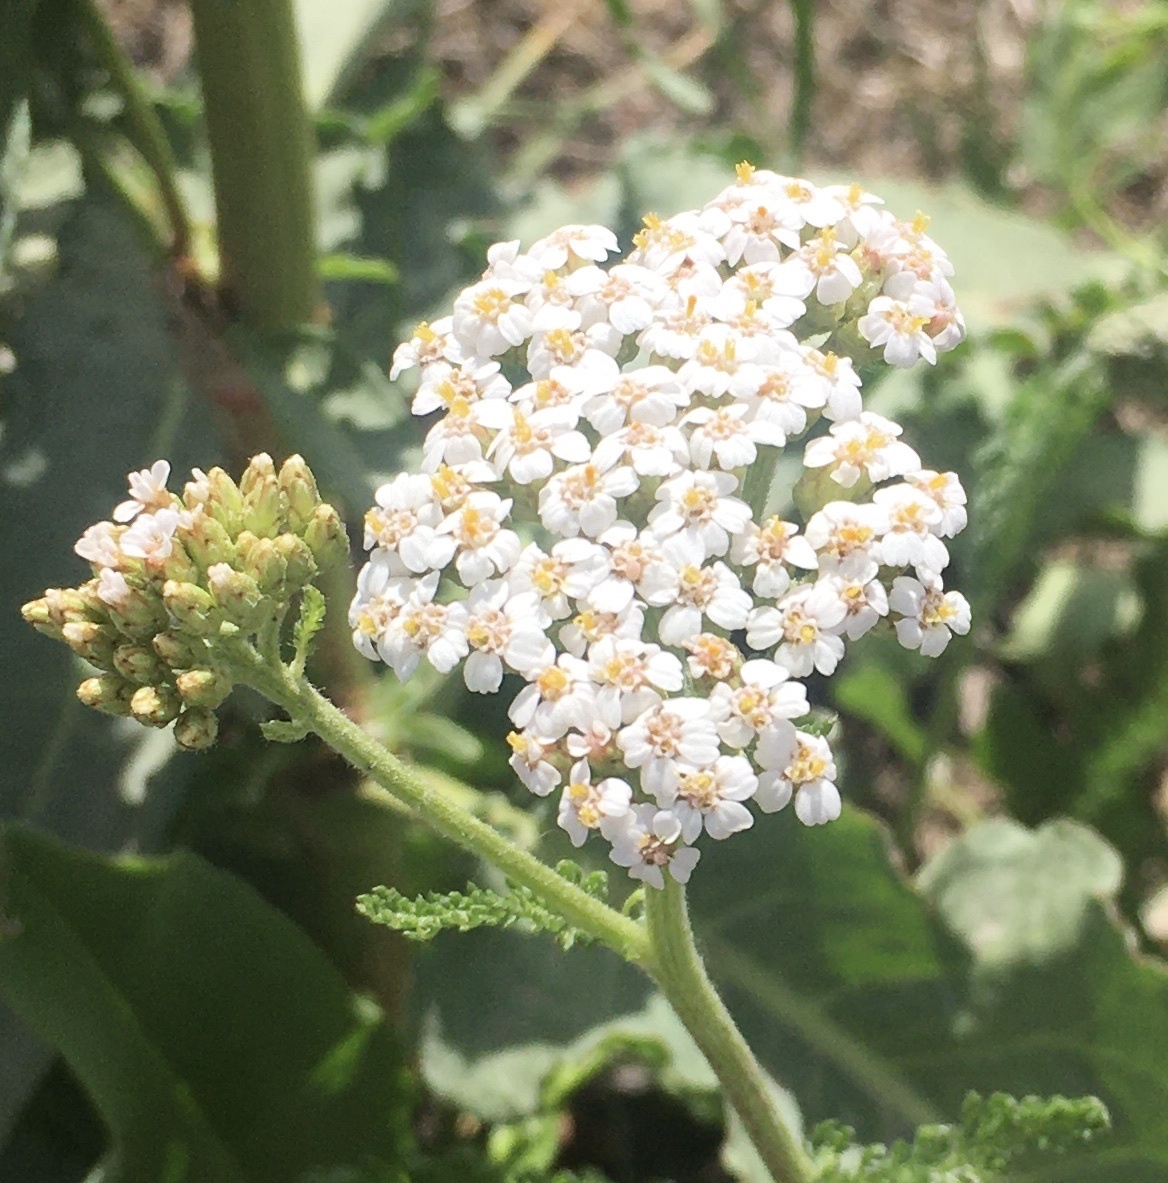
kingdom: Plantae
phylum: Tracheophyta
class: Magnoliopsida
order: Asterales
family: Asteraceae
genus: Achillea
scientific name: Achillea millefolium
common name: Yarrow
